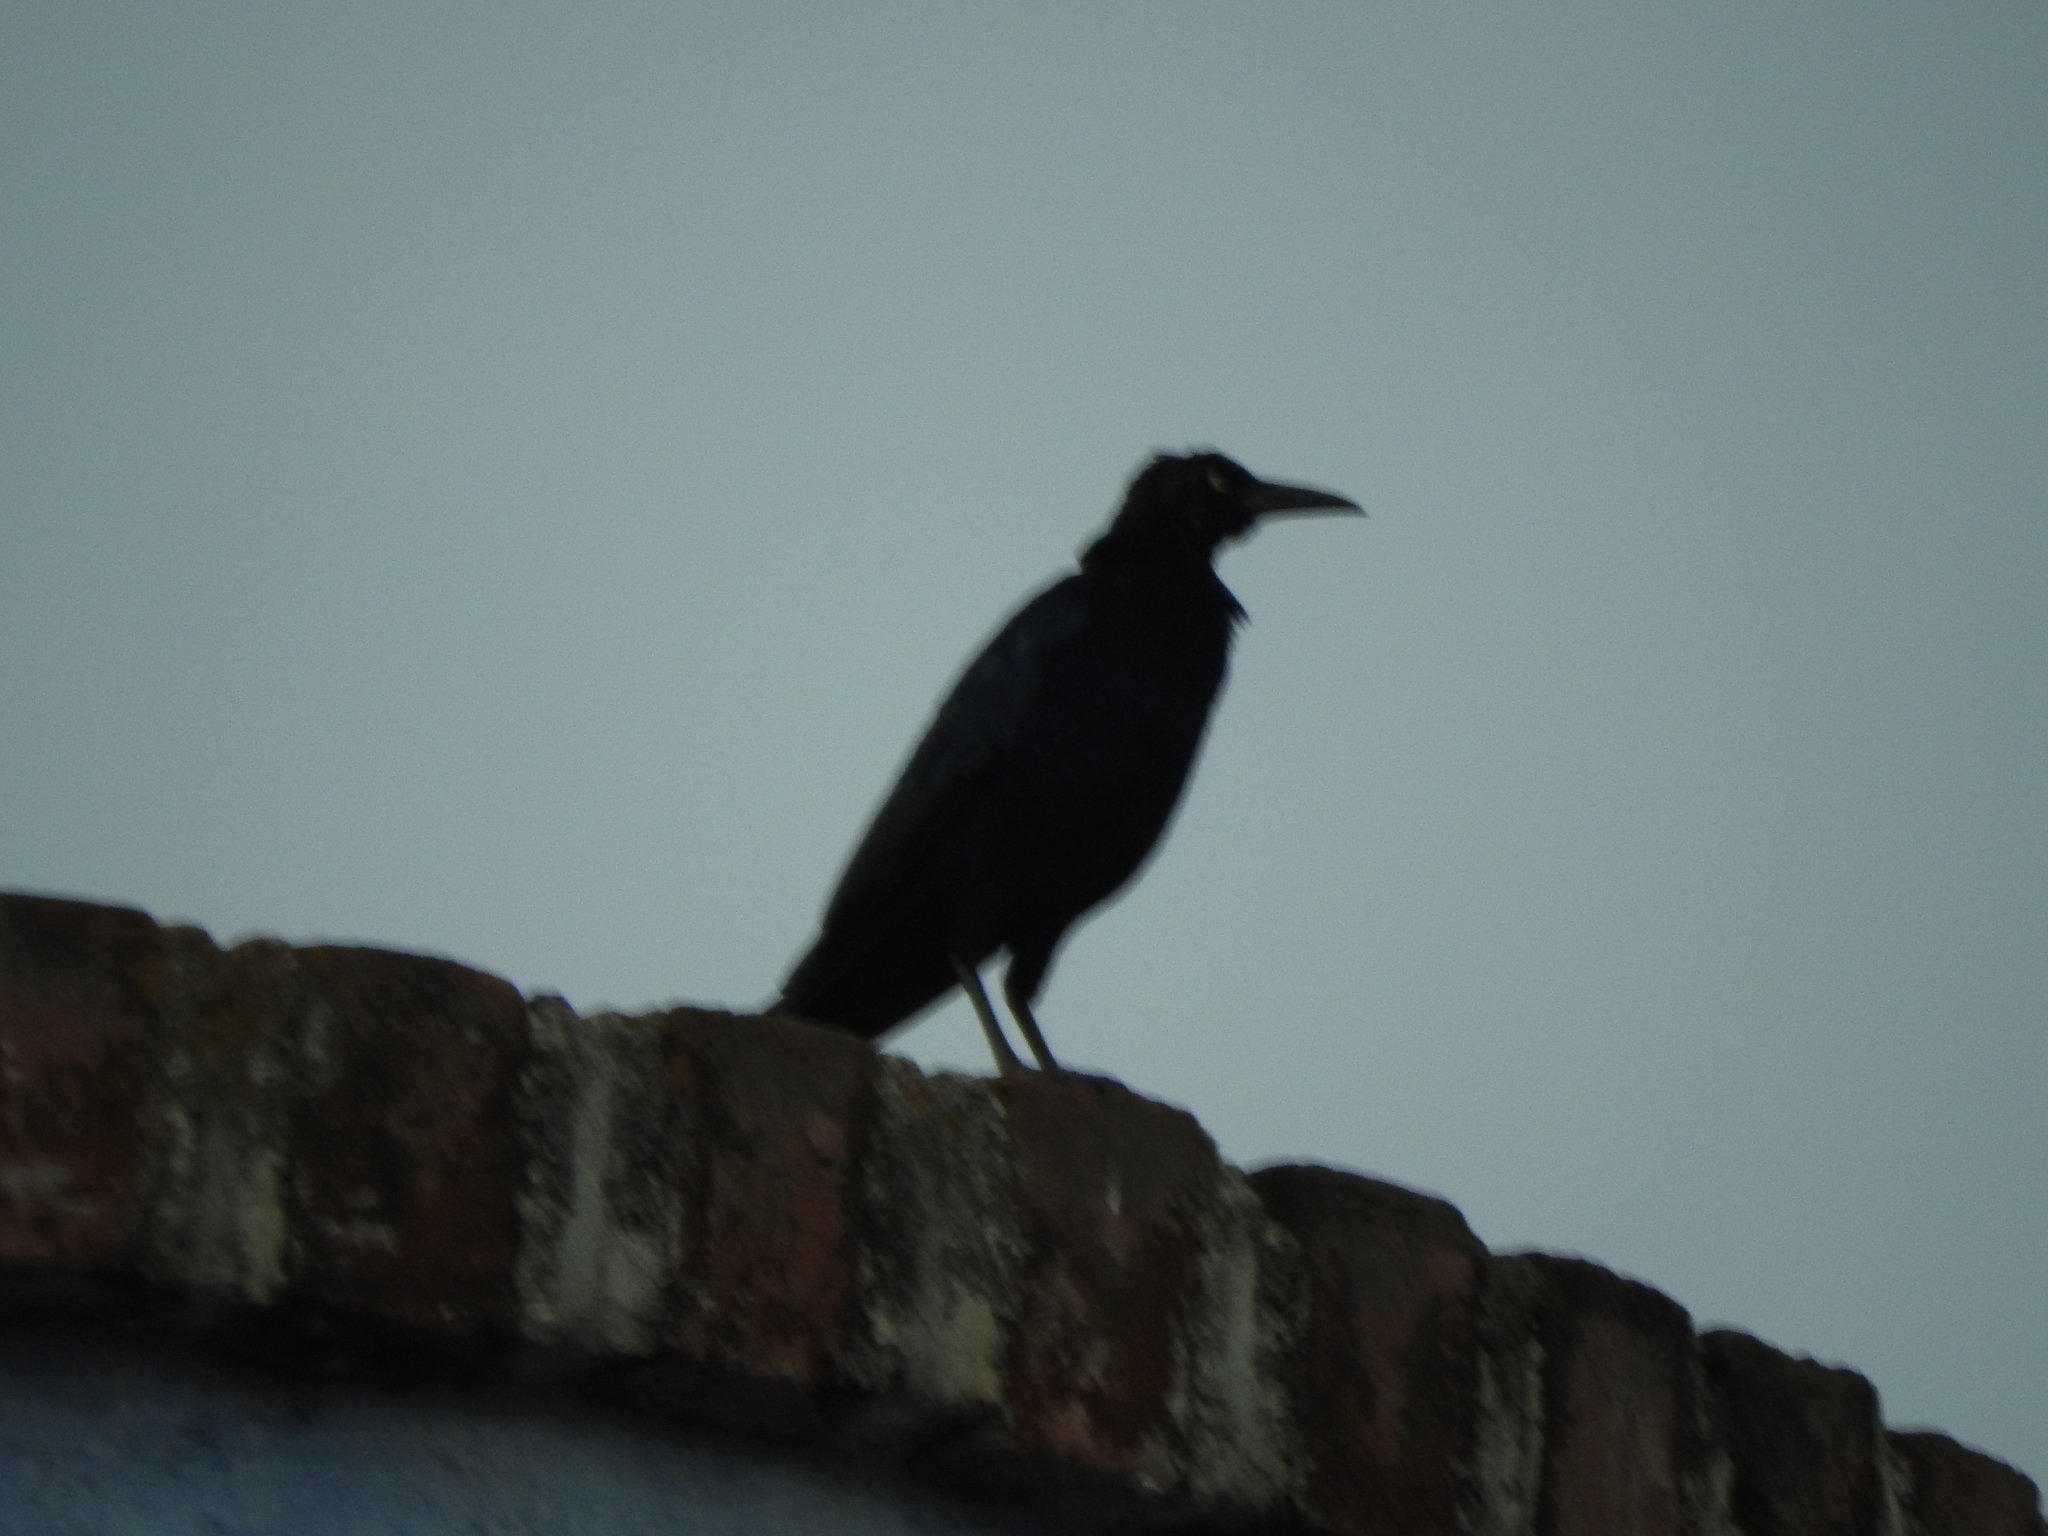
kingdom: Animalia
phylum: Chordata
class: Aves
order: Passeriformes
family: Icteridae
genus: Quiscalus
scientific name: Quiscalus mexicanus
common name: Great-tailed grackle
